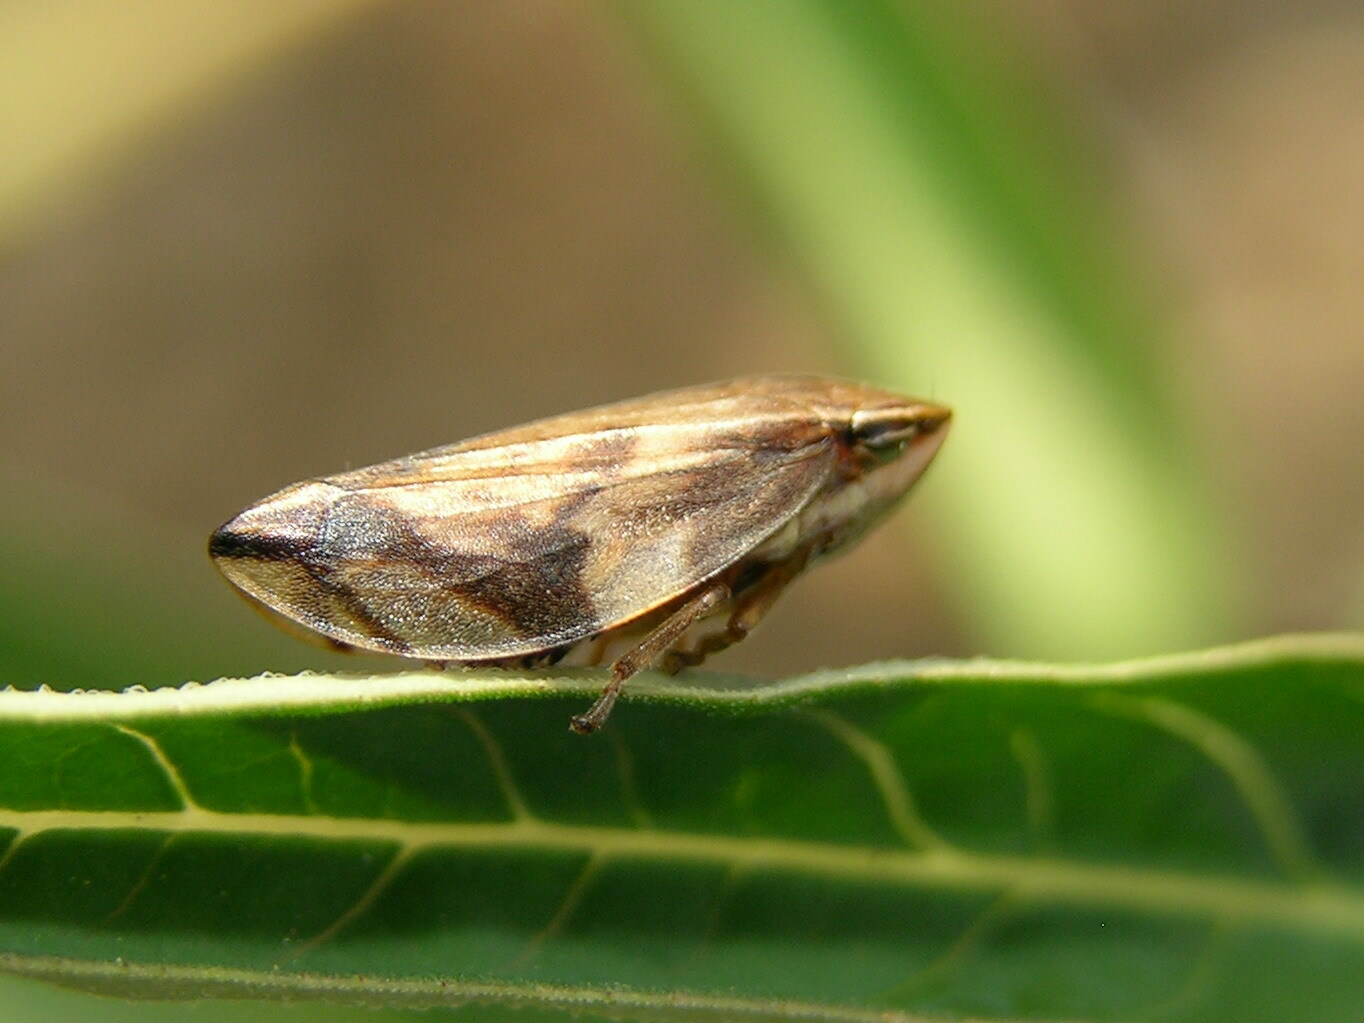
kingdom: Animalia
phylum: Arthropoda
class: Insecta
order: Hemiptera
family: Aphrophoridae
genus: Clovia
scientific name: Clovia conifera
